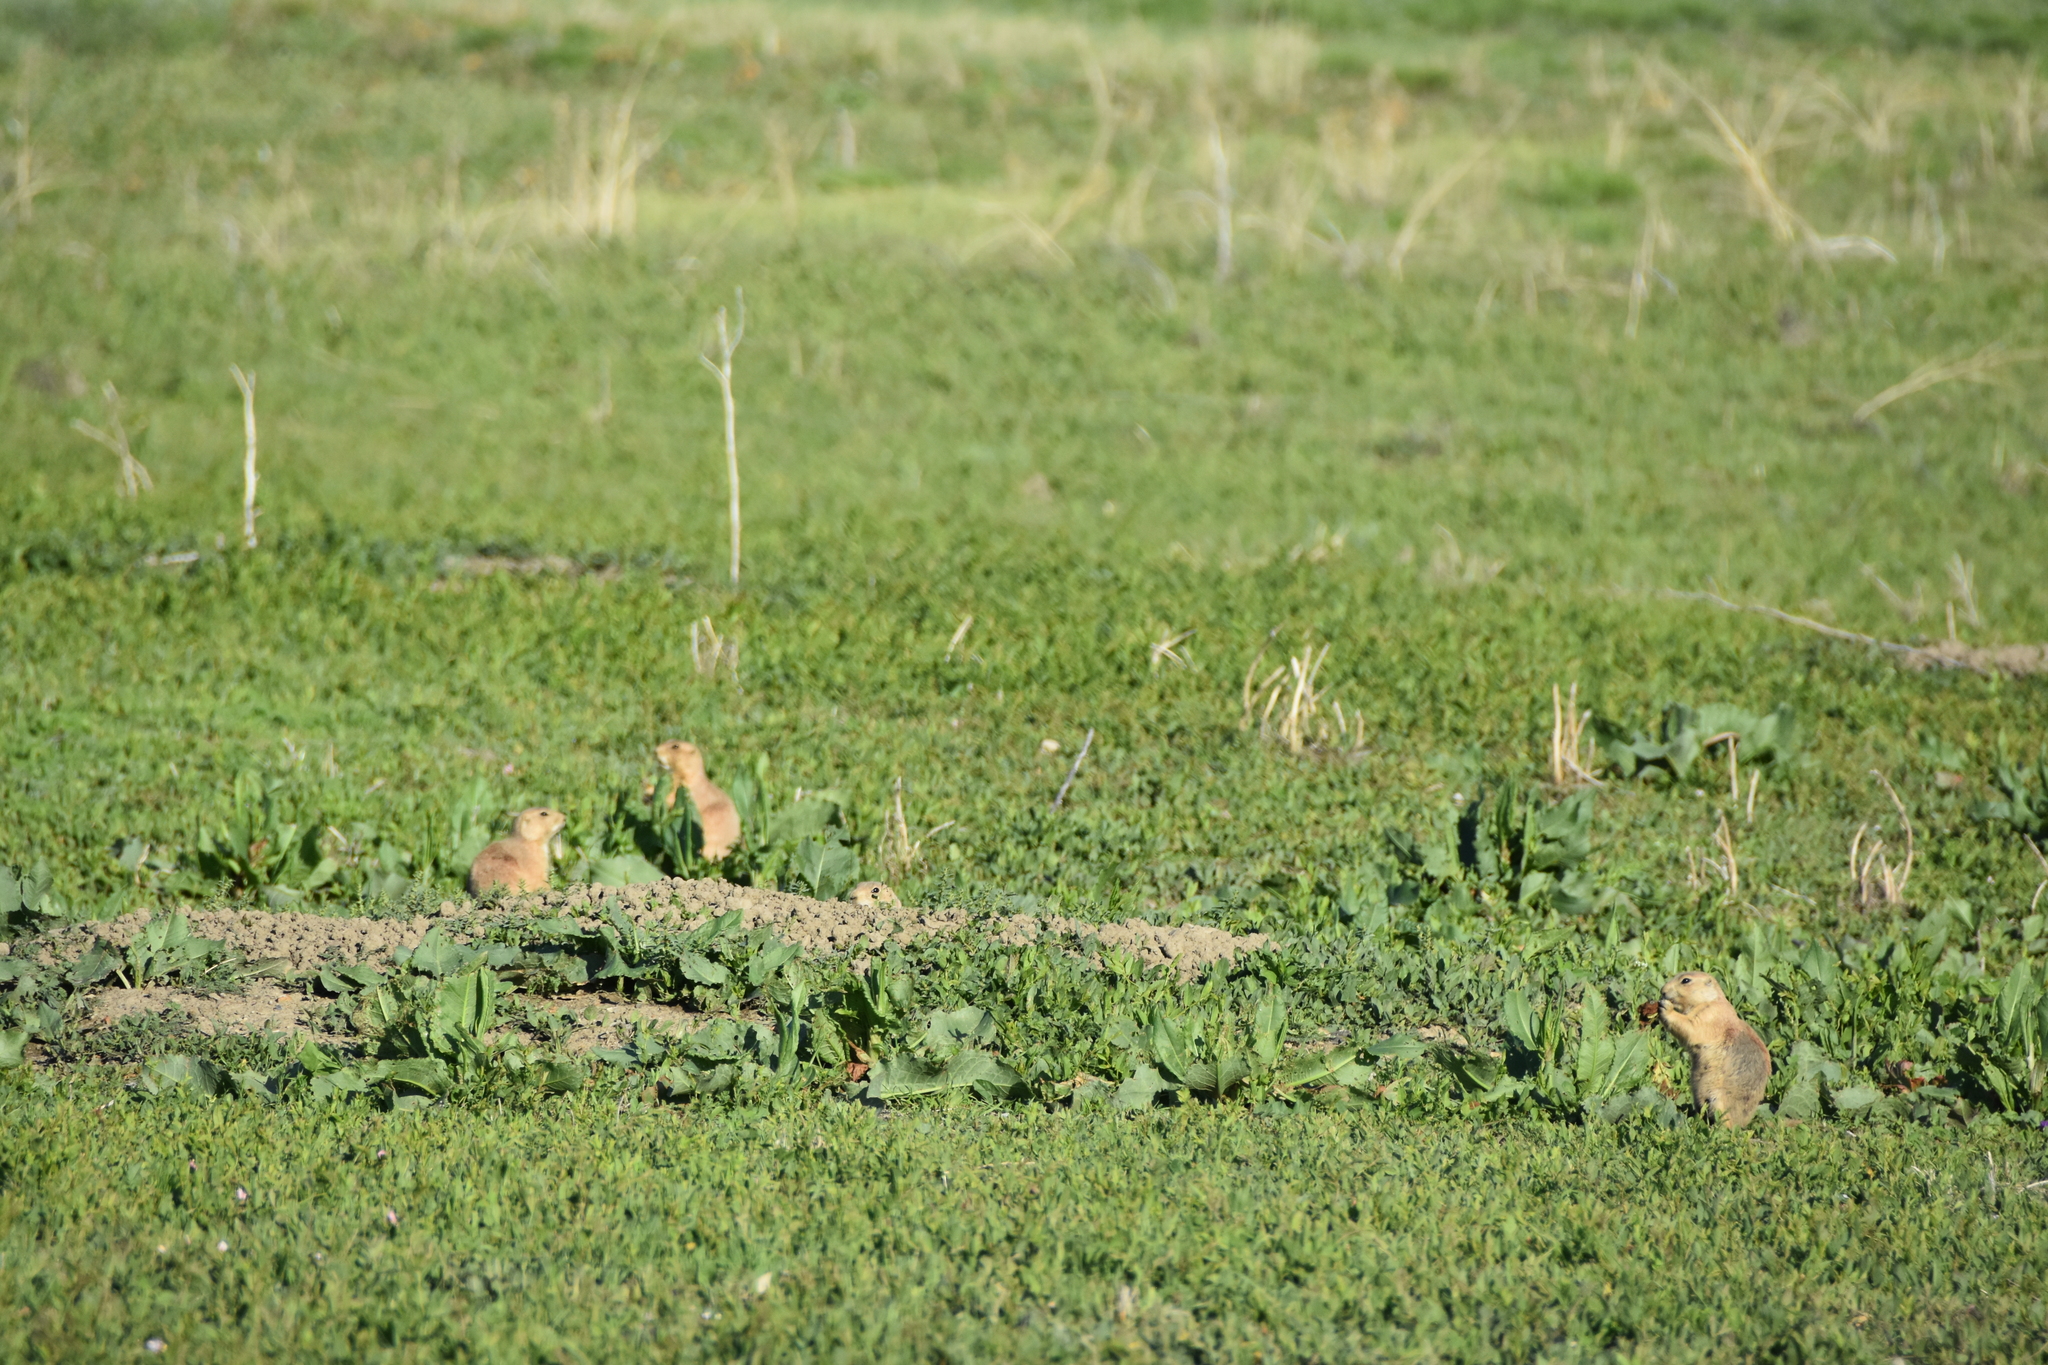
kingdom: Animalia
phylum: Chordata
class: Mammalia
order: Rodentia
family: Sciuridae
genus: Cynomys
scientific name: Cynomys ludovicianus
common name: Black-tailed prairie dog
